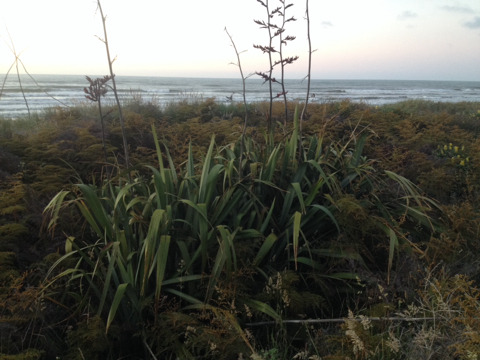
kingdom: Plantae
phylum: Tracheophyta
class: Liliopsida
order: Asparagales
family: Asphodelaceae
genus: Phormium
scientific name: Phormium tenax
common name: New zealand flax
